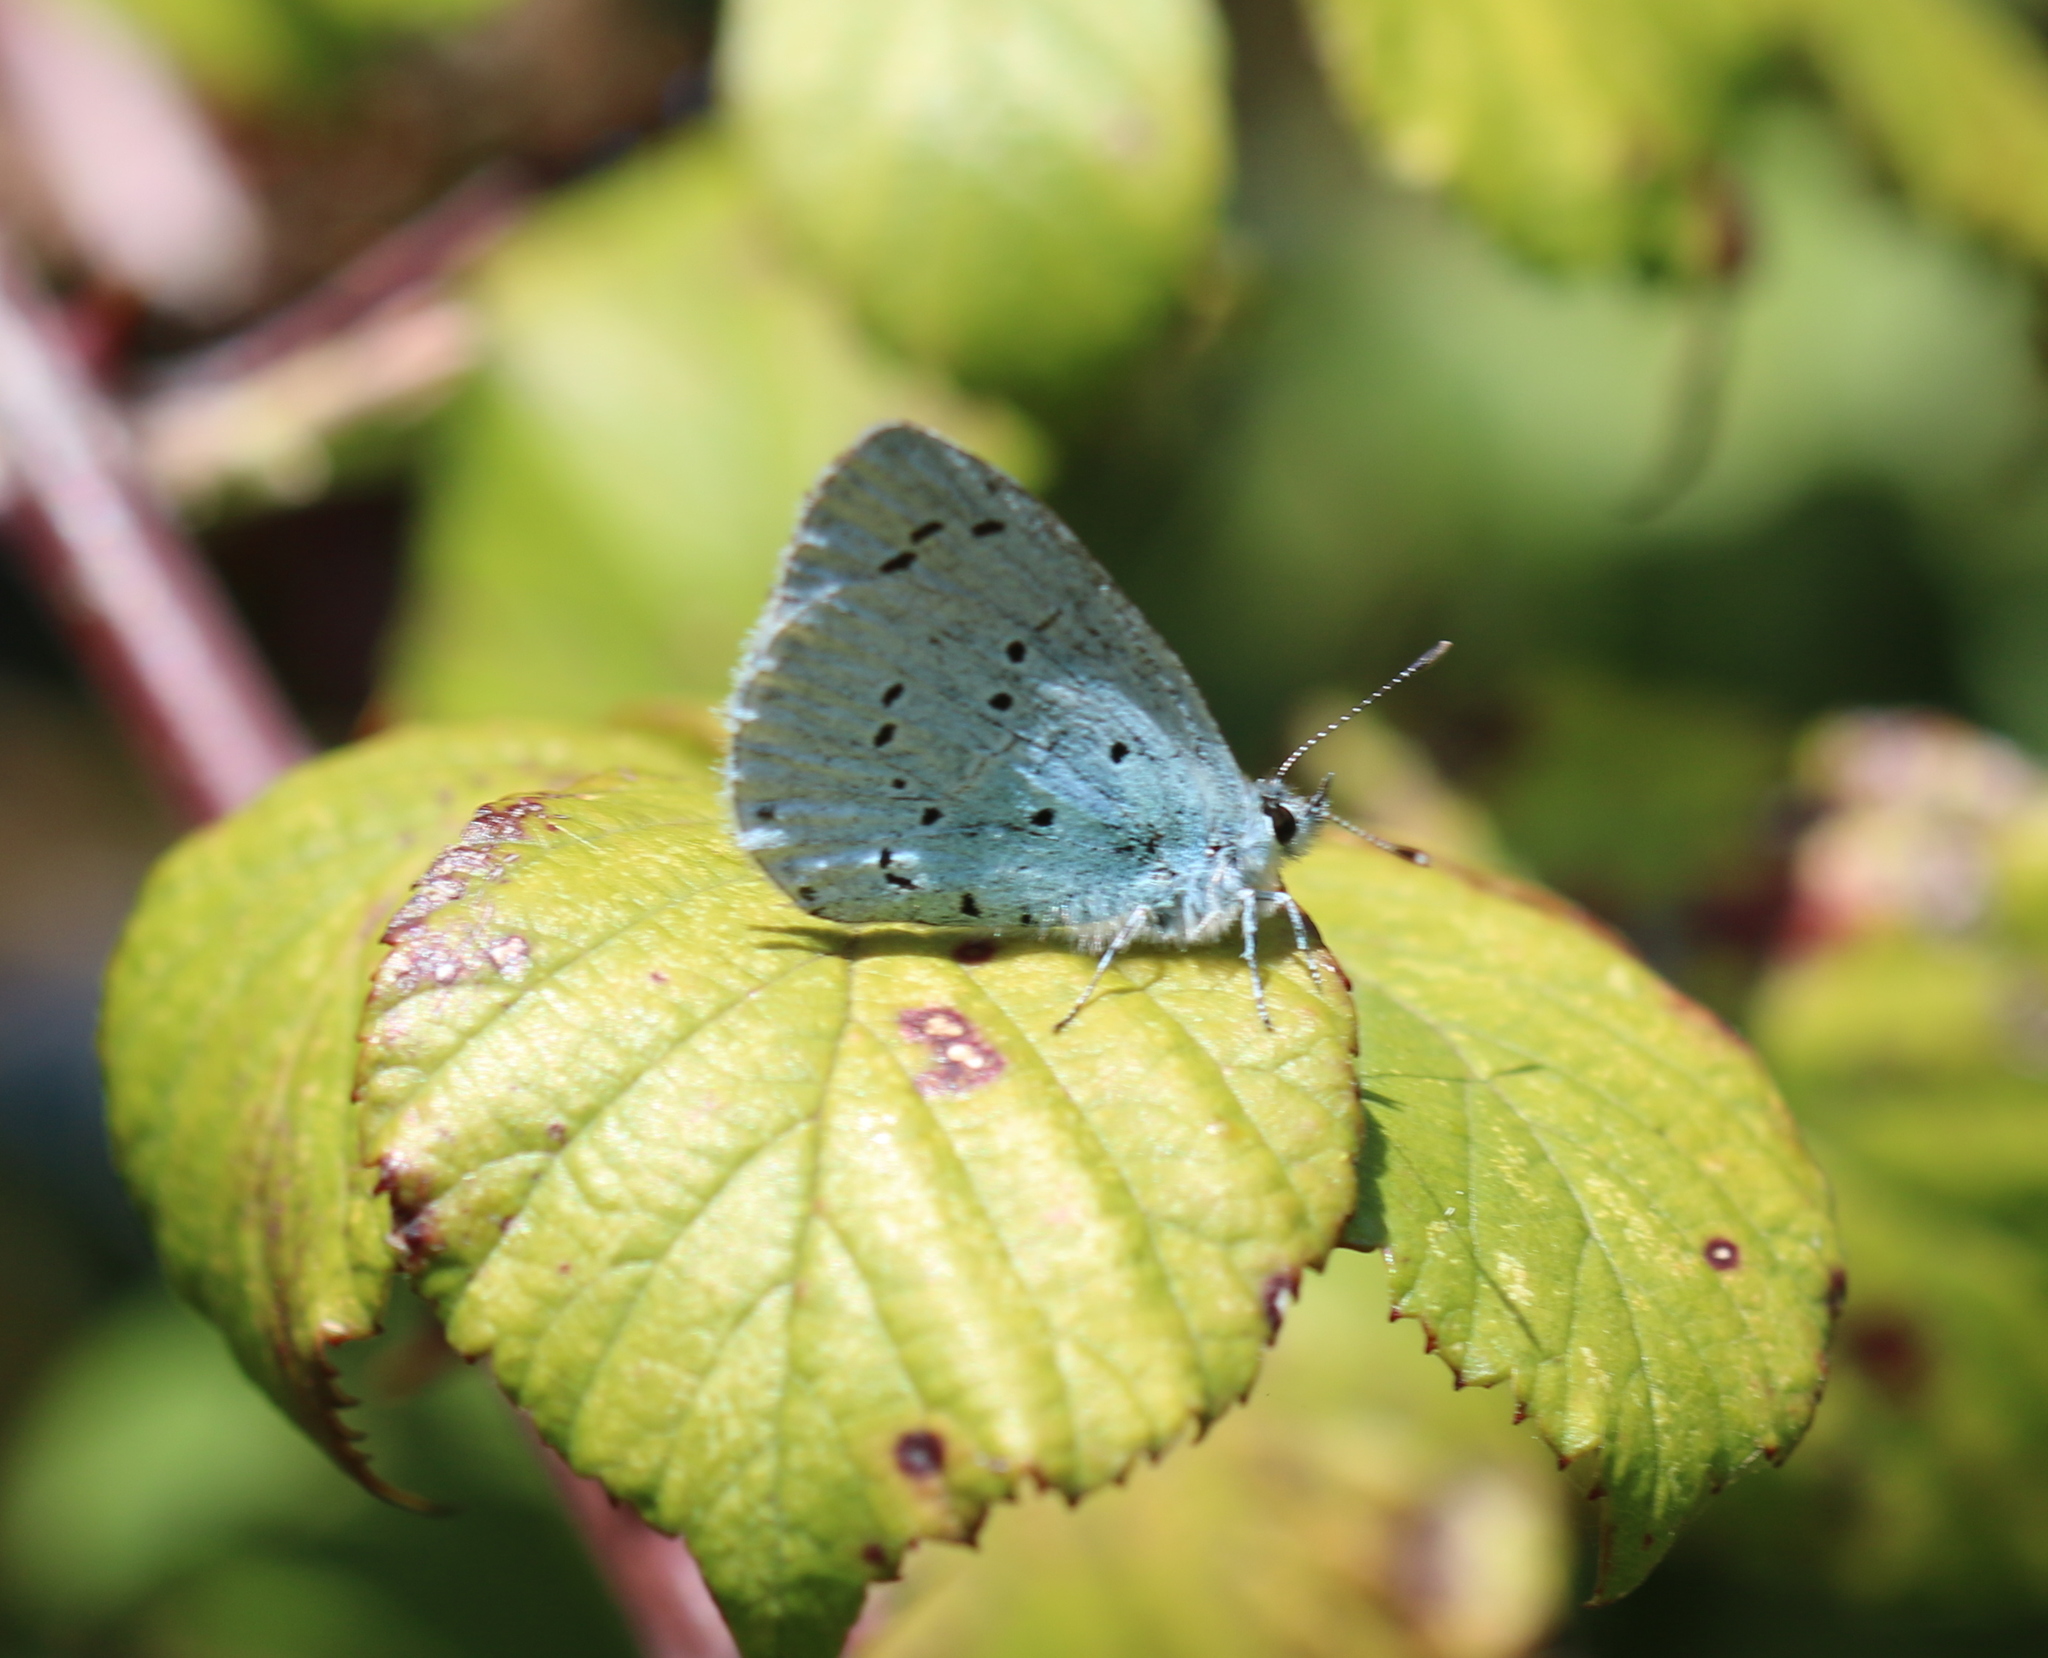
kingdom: Animalia
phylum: Arthropoda
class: Insecta
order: Lepidoptera
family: Lycaenidae
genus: Celastrina
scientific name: Celastrina argiolus
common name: Holly blue
